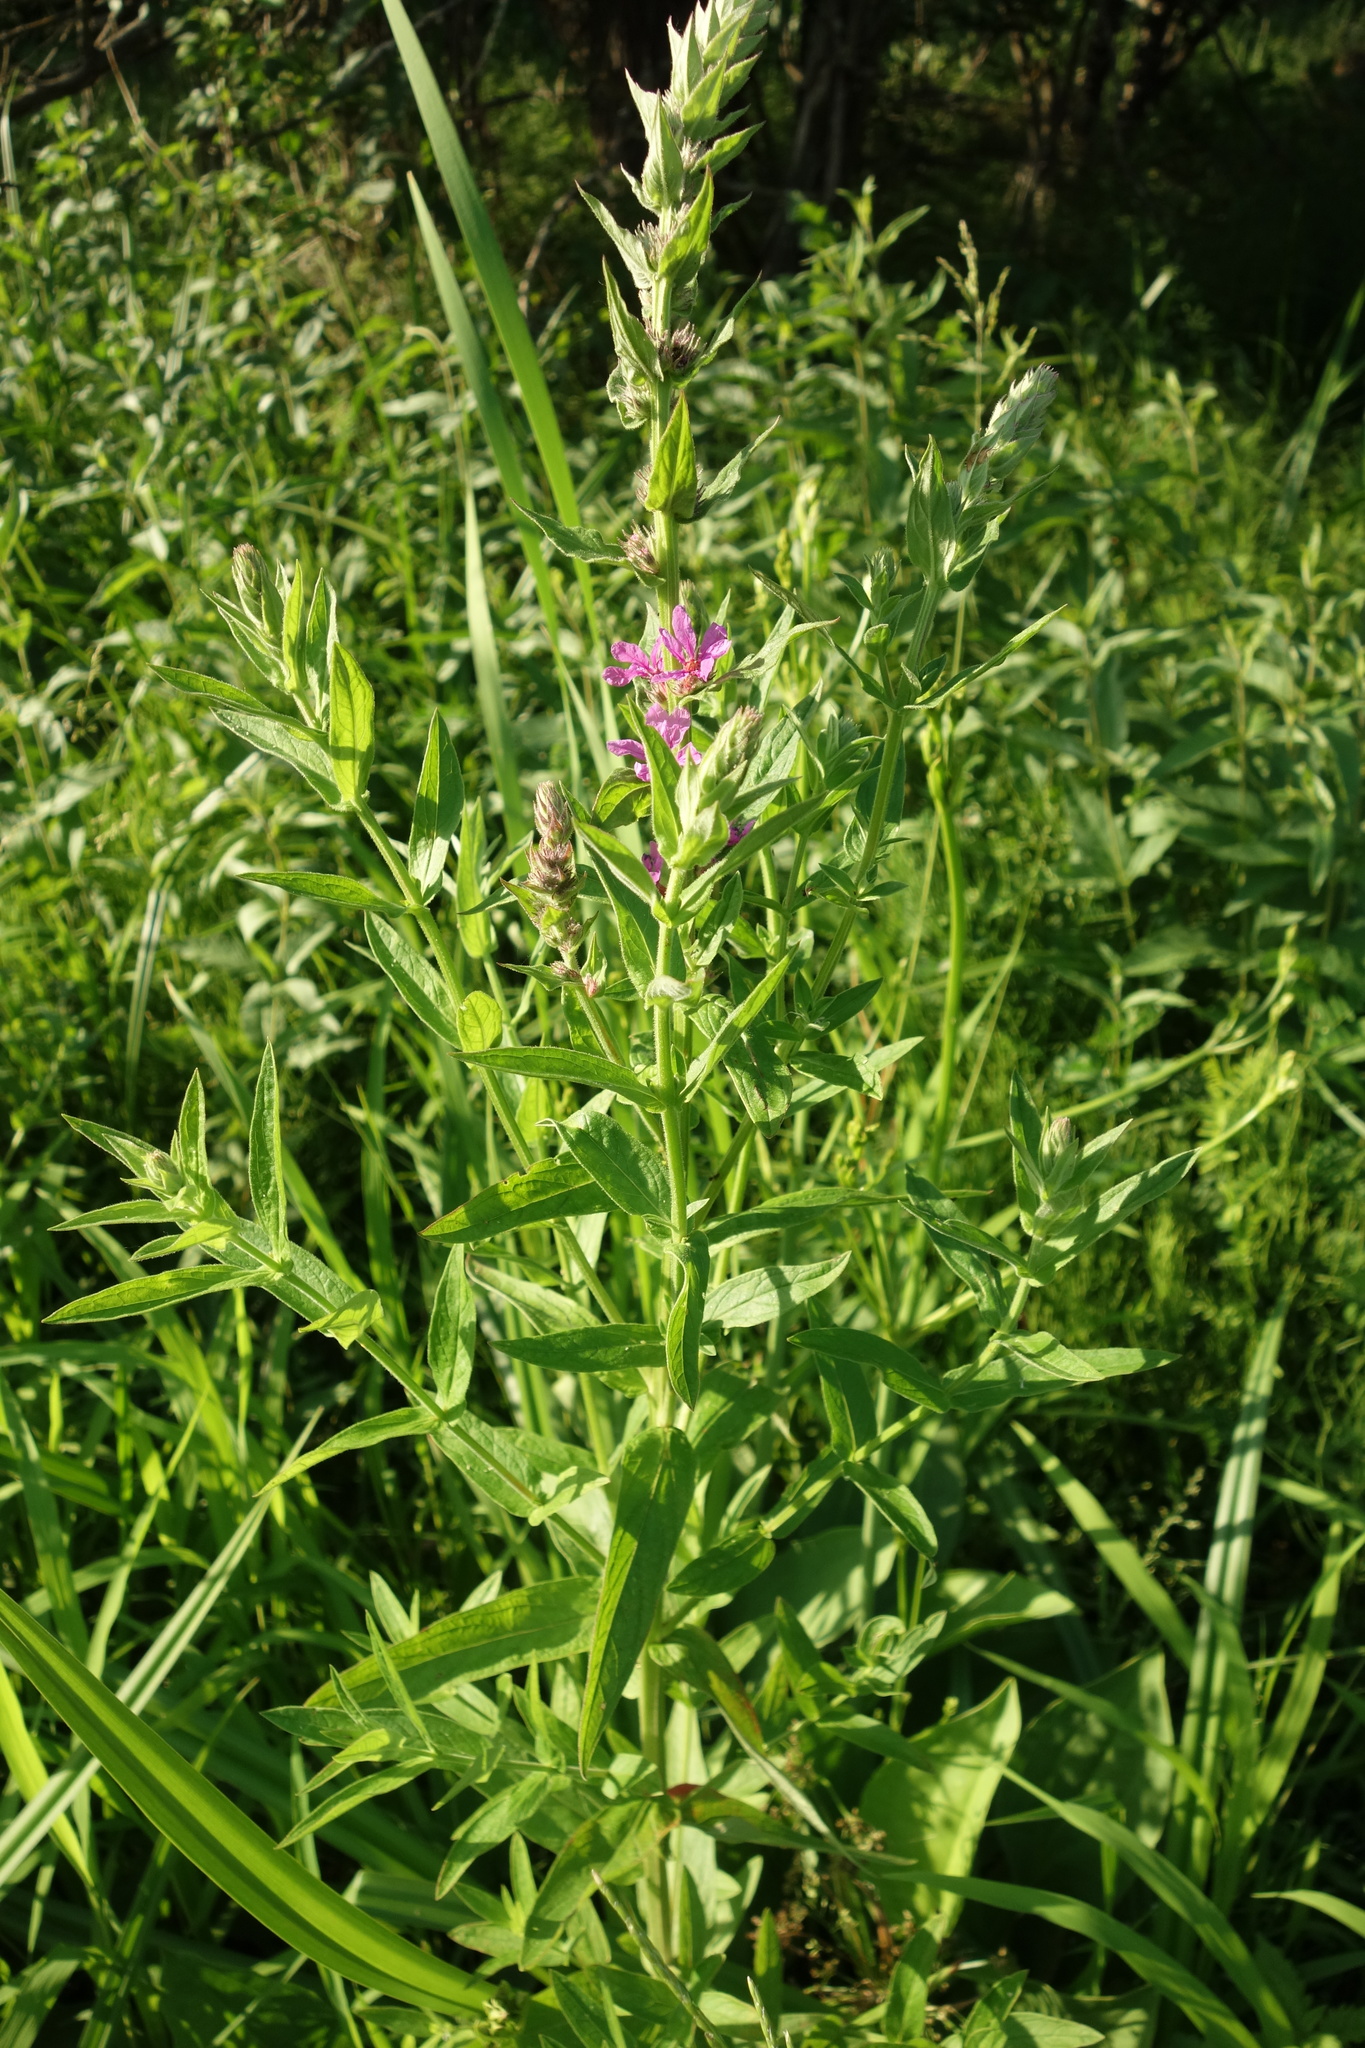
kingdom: Plantae
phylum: Tracheophyta
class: Magnoliopsida
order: Myrtales
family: Lythraceae
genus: Lythrum
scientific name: Lythrum salicaria
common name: Purple loosestrife
